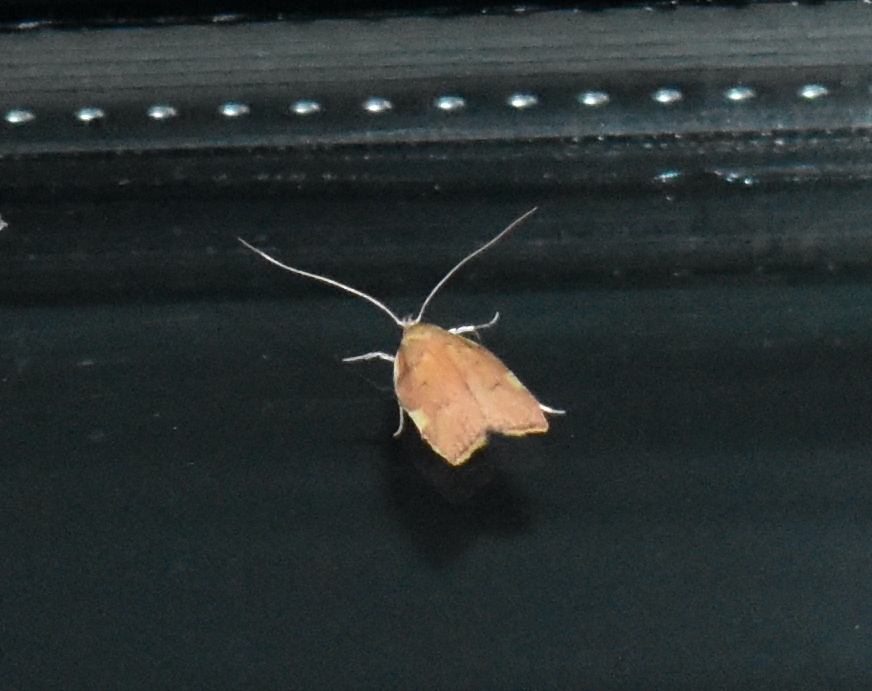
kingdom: Animalia
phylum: Arthropoda
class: Insecta
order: Lepidoptera
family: Peleopodidae
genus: Carcina
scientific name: Carcina quercana
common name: Moth
